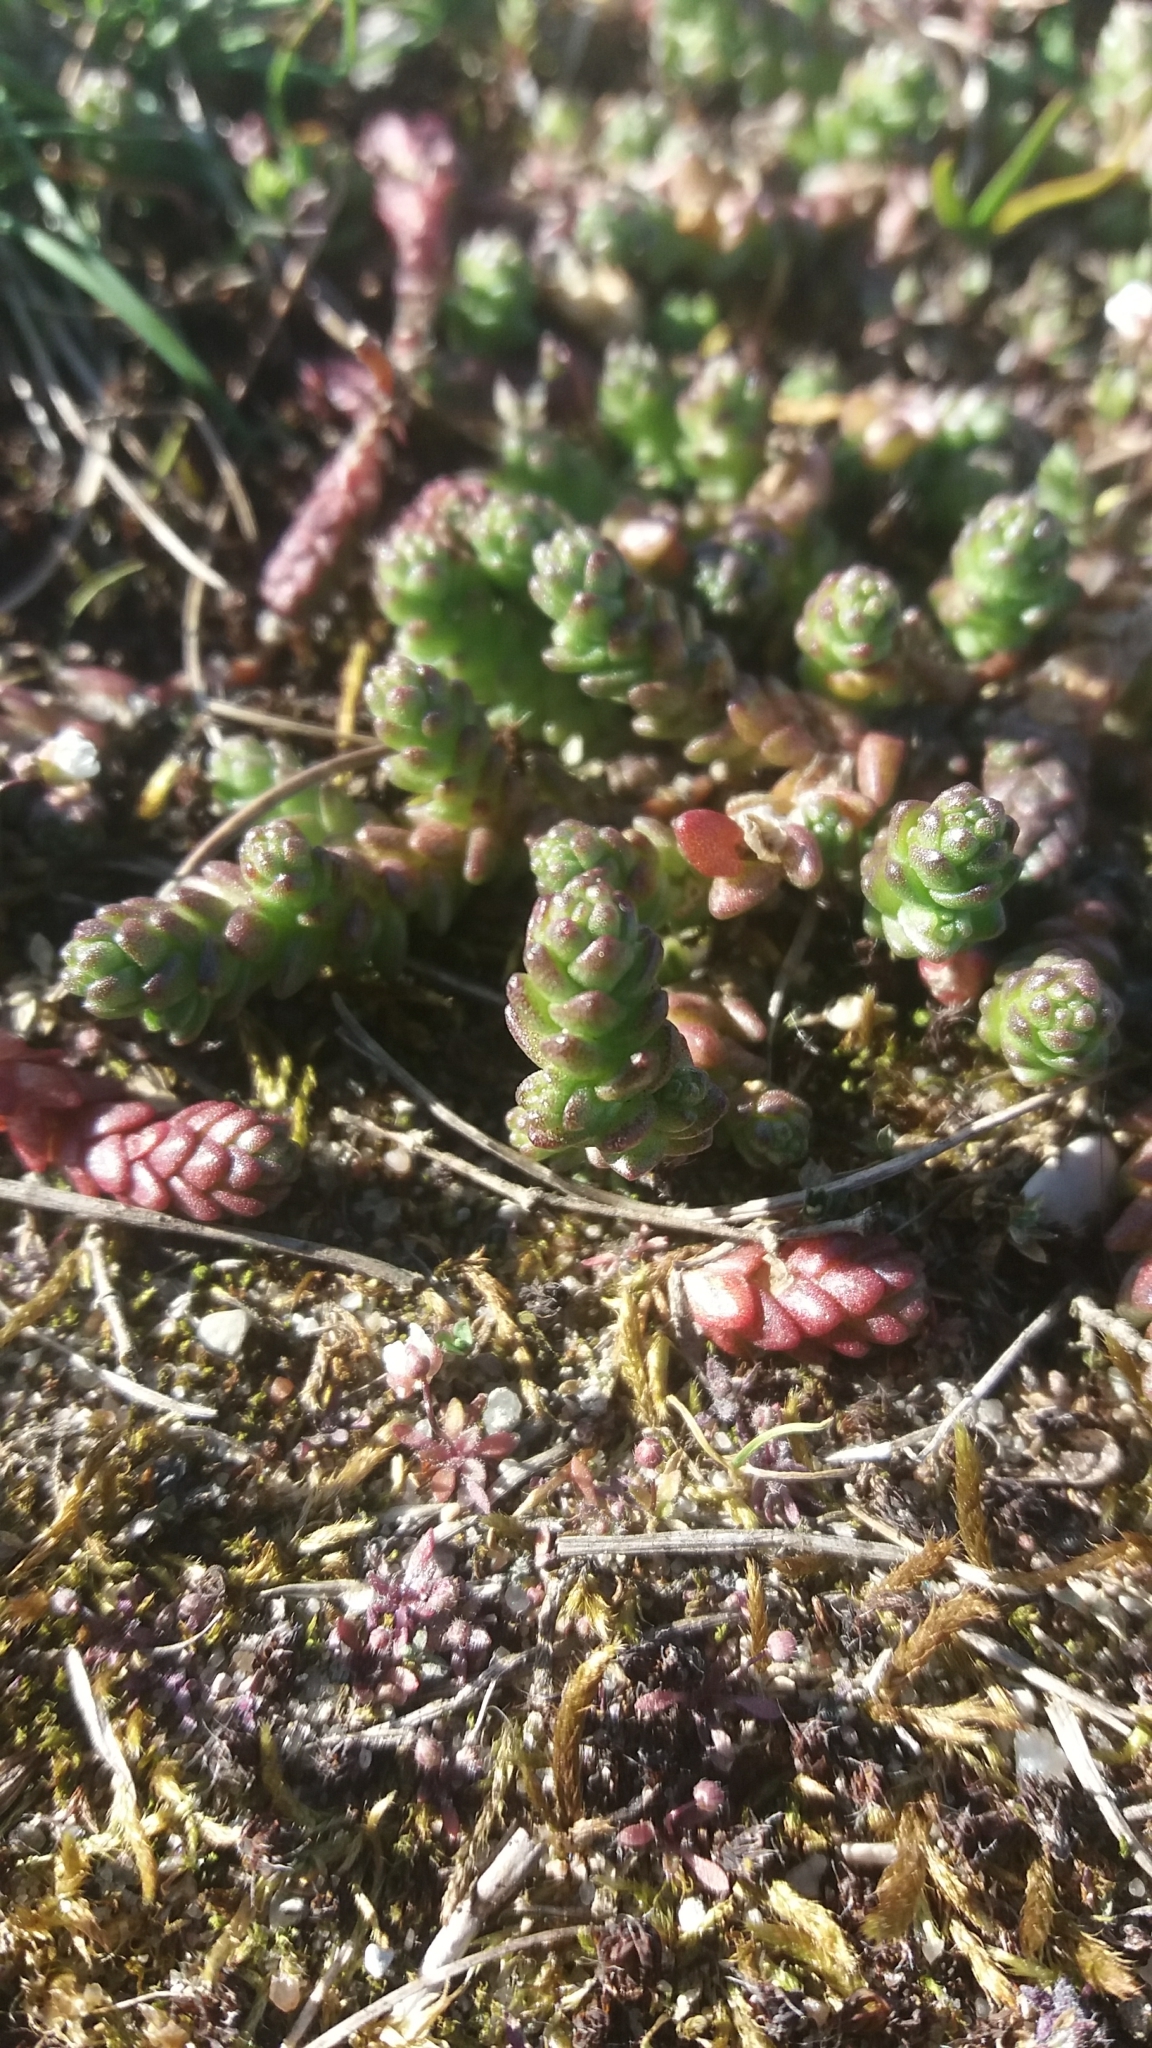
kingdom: Plantae
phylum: Tracheophyta
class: Magnoliopsida
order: Saxifragales
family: Crassulaceae
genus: Sedum
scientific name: Sedum acre
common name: Biting stonecrop
